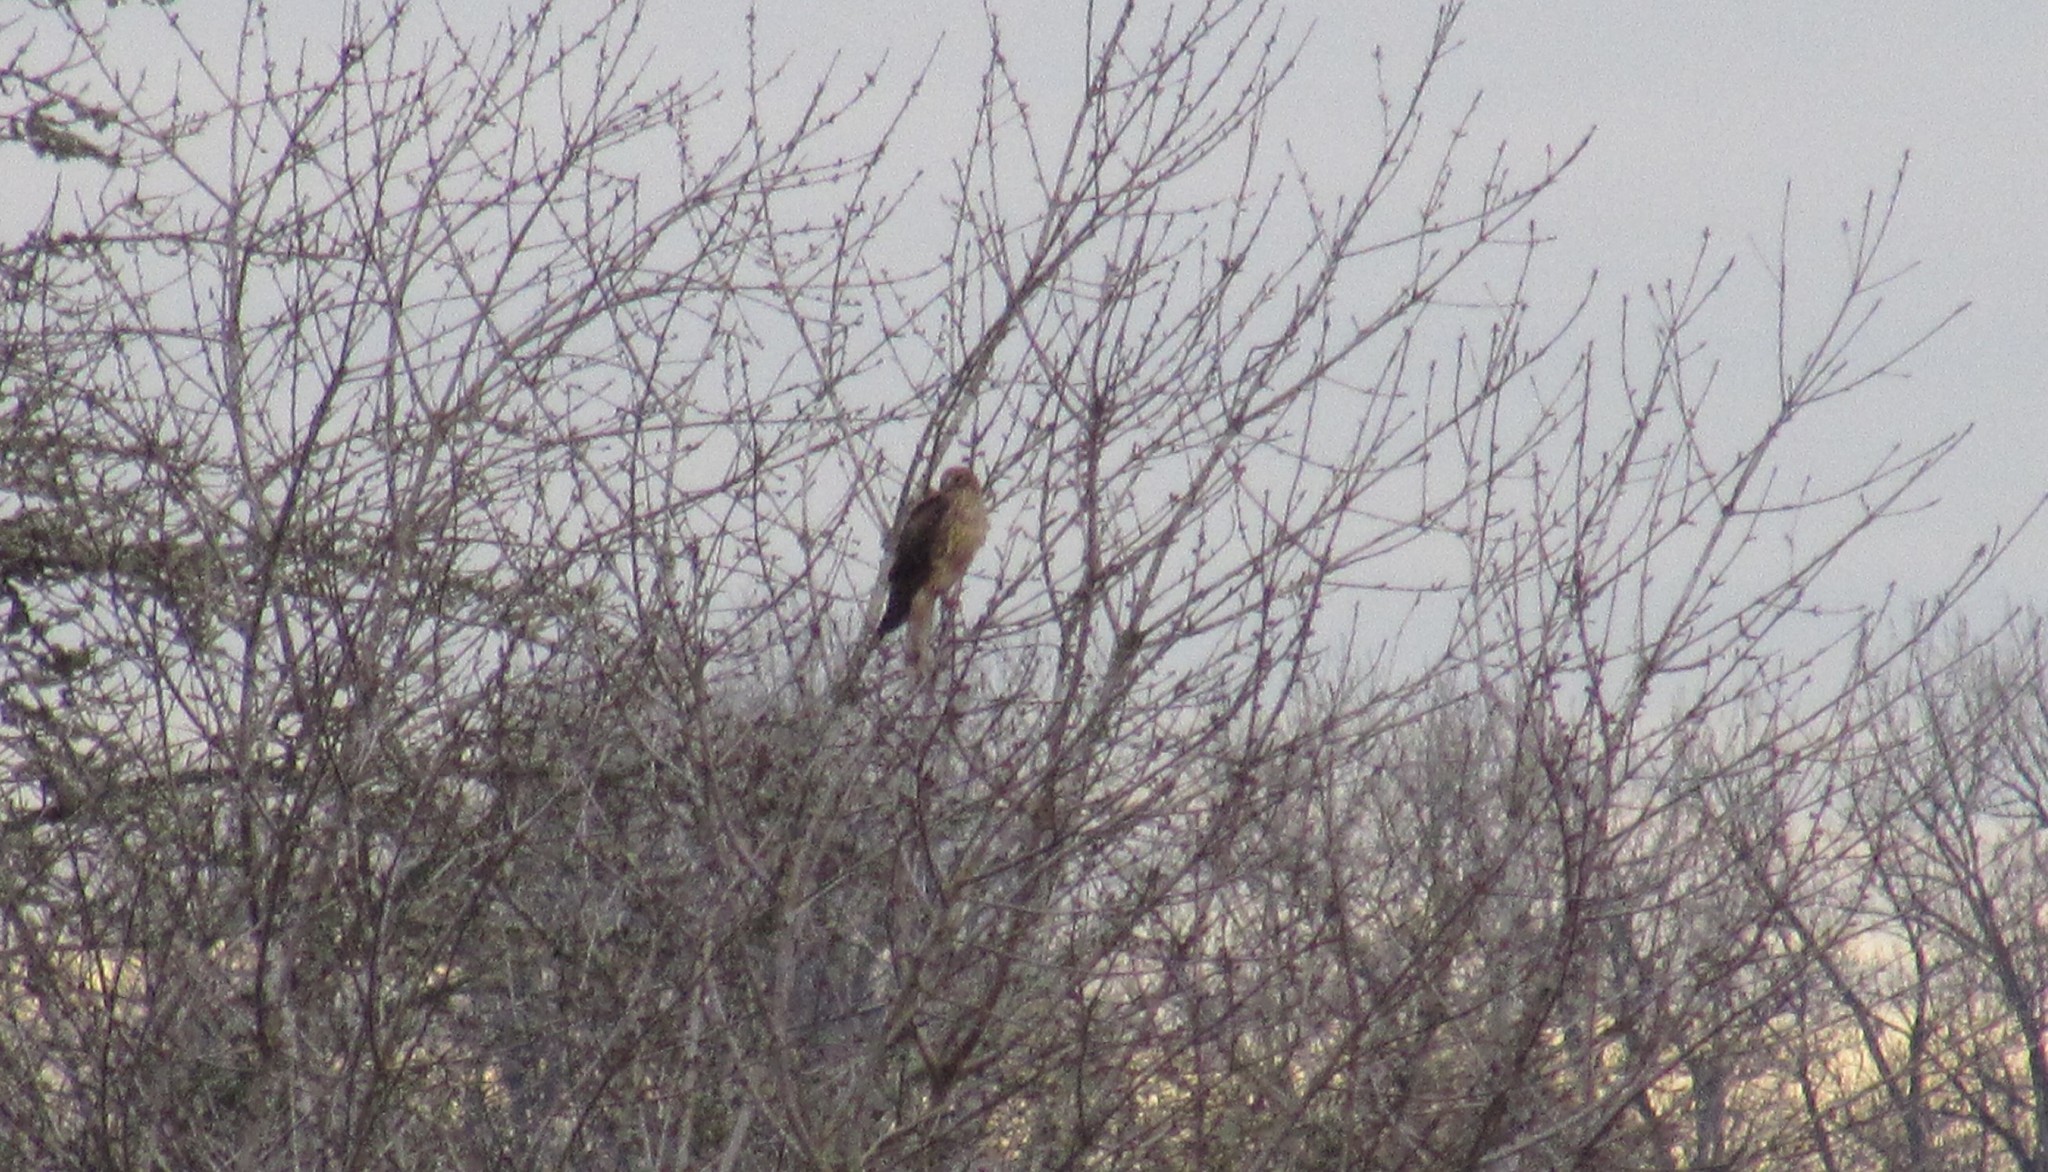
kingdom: Animalia
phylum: Chordata
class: Aves
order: Accipitriformes
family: Accipitridae
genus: Circus
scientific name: Circus cyaneus
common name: Hen harrier
